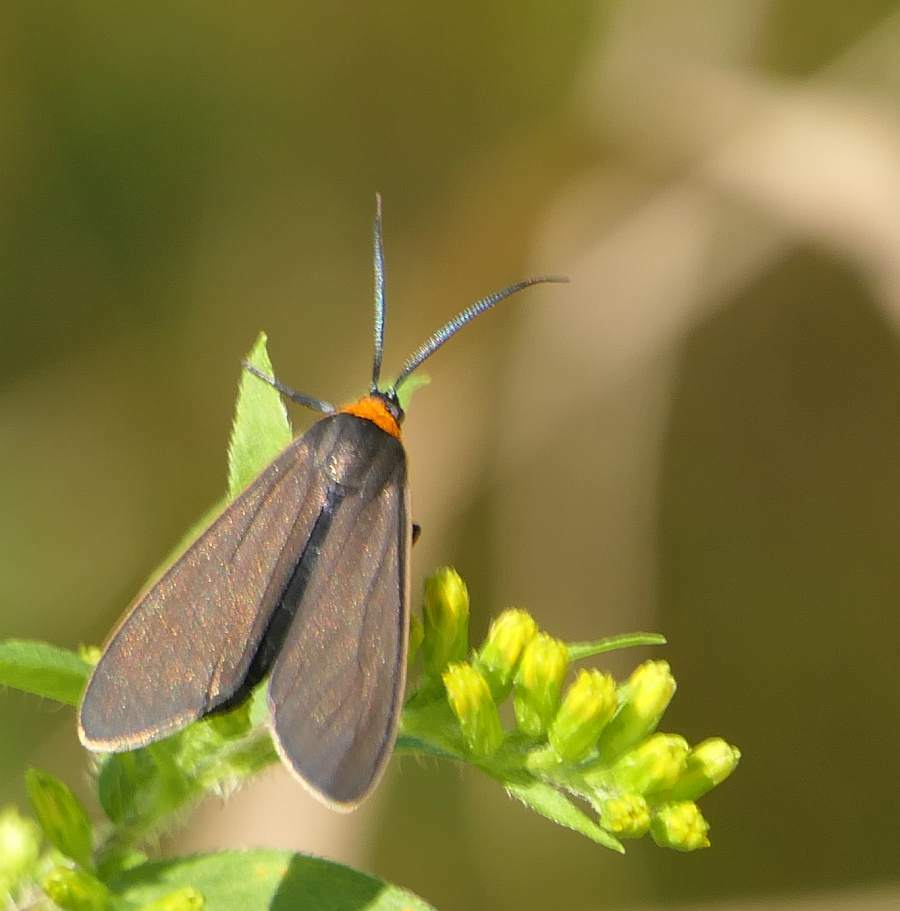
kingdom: Animalia
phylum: Arthropoda
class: Insecta
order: Lepidoptera
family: Erebidae
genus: Ctenucha
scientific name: Ctenucha virginica
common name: Virginia ctenucha moth
